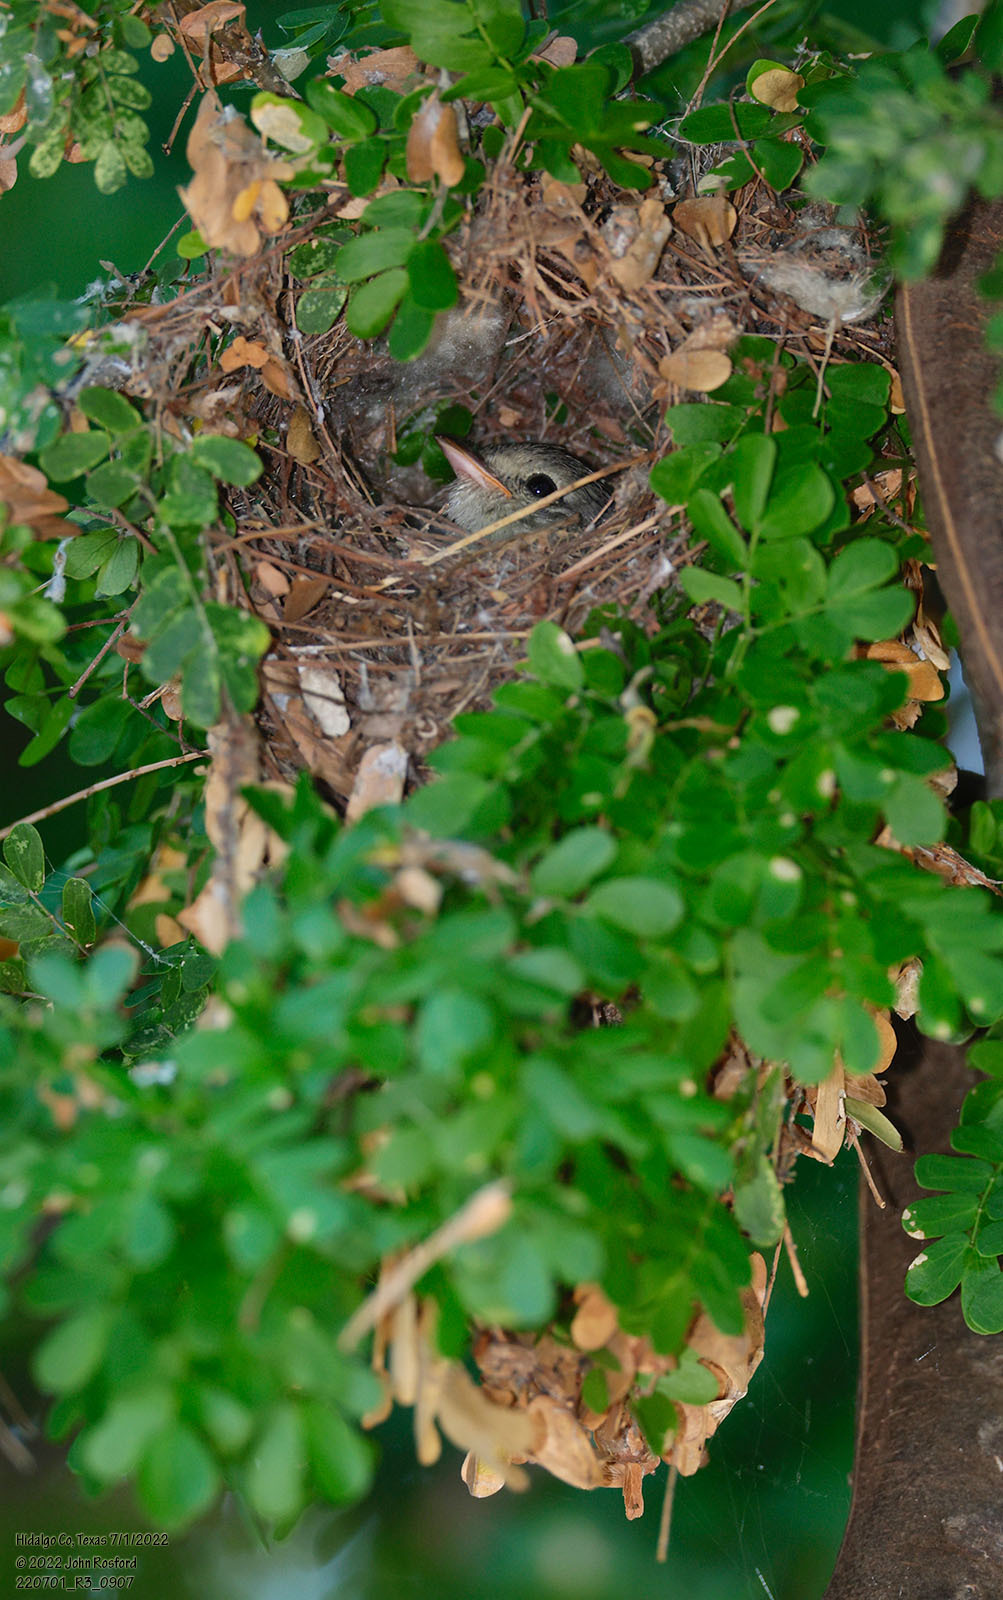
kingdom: Animalia
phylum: Chordata
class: Aves
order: Passeriformes
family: Tyrannidae
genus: Camptostoma
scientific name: Camptostoma imberbe
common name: Northern beardless-tyrannulet
